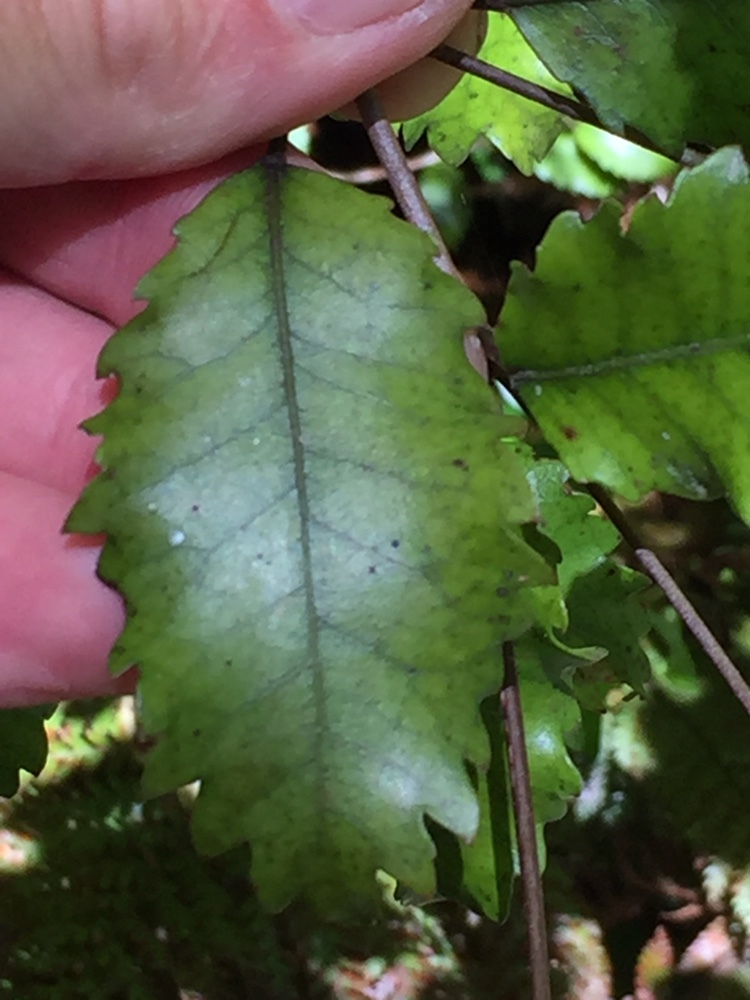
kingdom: Plantae
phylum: Tracheophyta
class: Magnoliopsida
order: Oxalidales
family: Cunoniaceae
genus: Pterophylla
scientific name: Pterophylla racemosa
